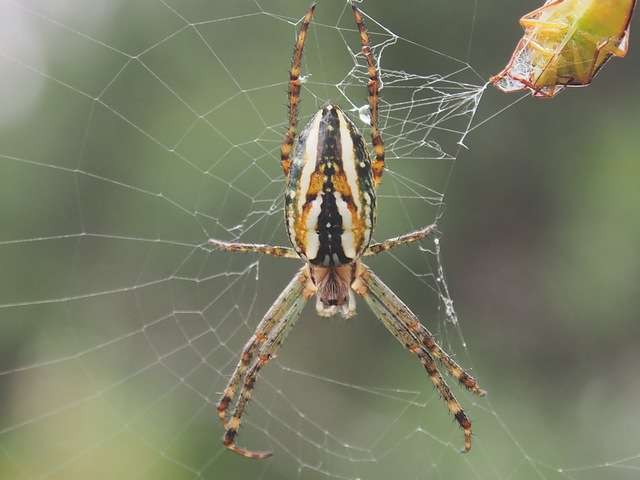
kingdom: Animalia
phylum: Arthropoda
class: Arachnida
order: Araneae
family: Araneidae
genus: Plebs
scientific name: Plebs bradleyi
